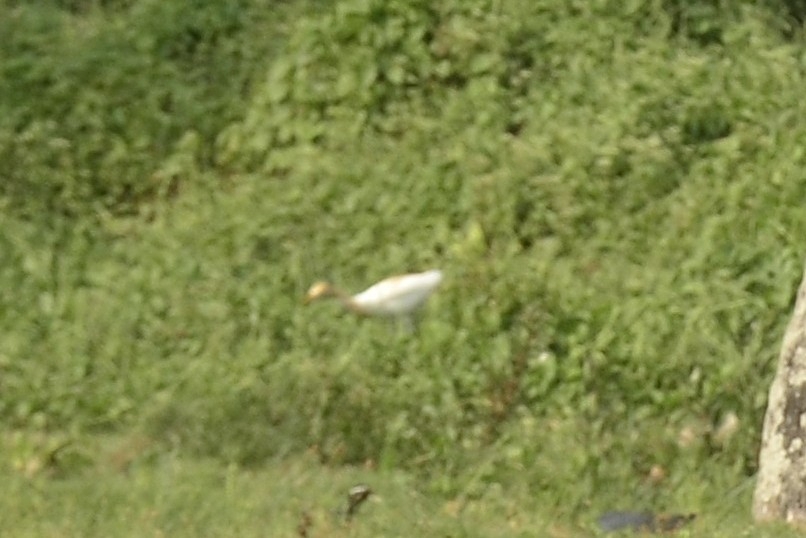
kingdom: Animalia
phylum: Chordata
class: Aves
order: Pelecaniformes
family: Ardeidae
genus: Bubulcus
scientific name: Bubulcus coromandus
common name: Eastern cattle egret
